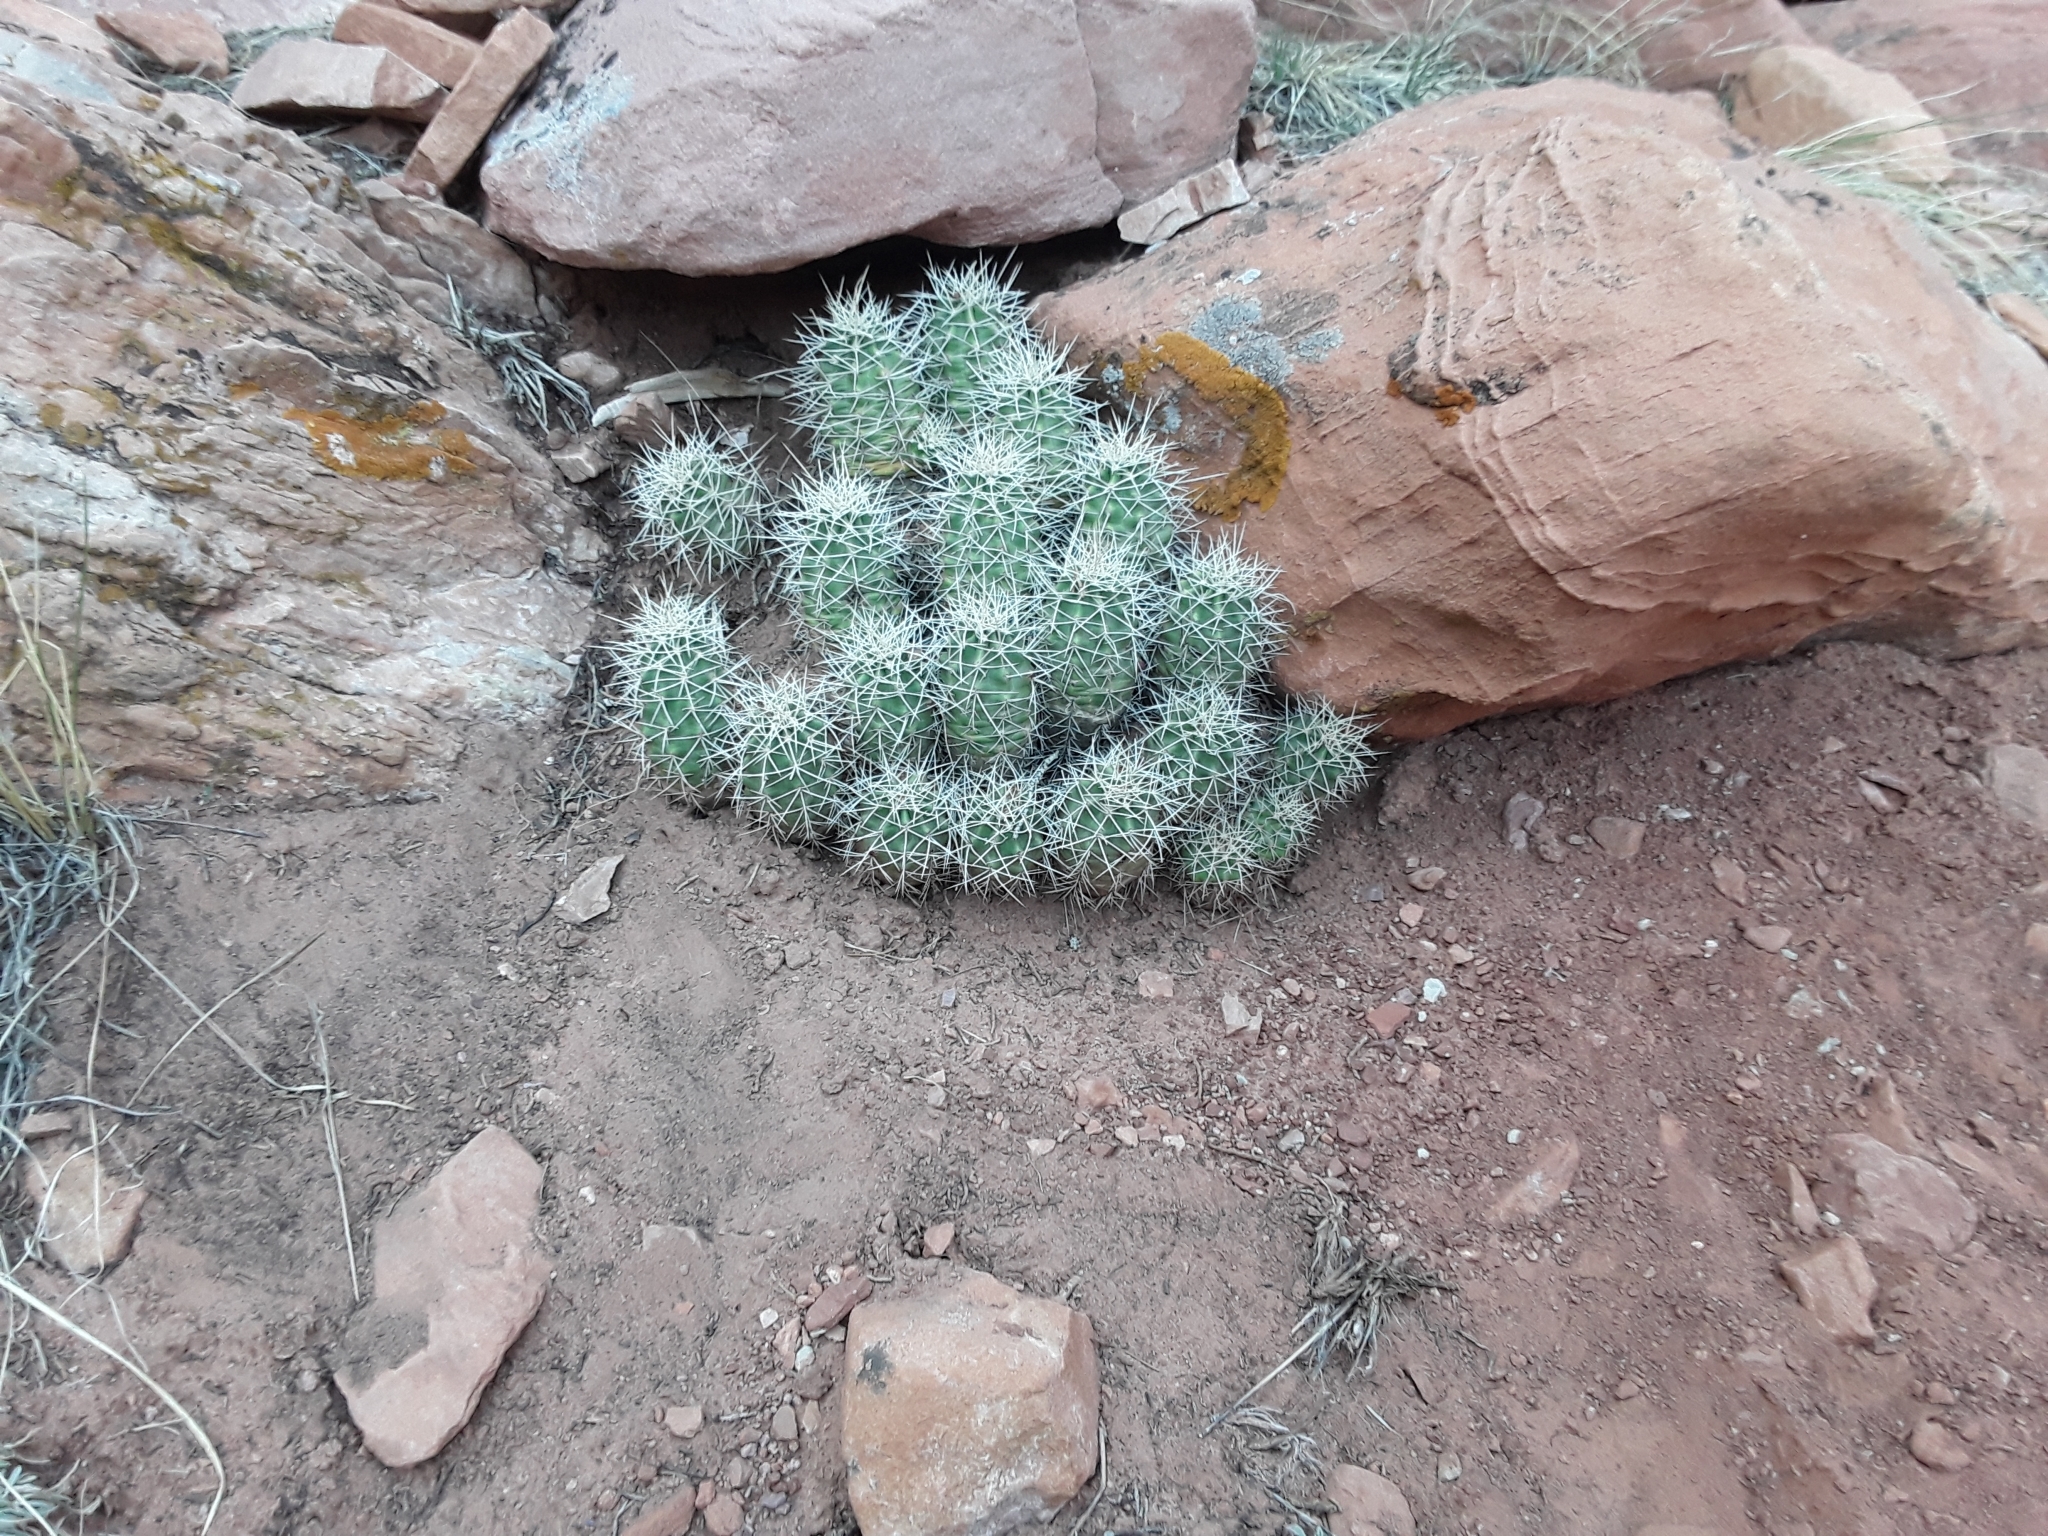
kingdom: Plantae
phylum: Tracheophyta
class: Magnoliopsida
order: Caryophyllales
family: Cactaceae
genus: Echinocereus
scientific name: Echinocereus triglochidiatus
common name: Claretcup hedgehog
